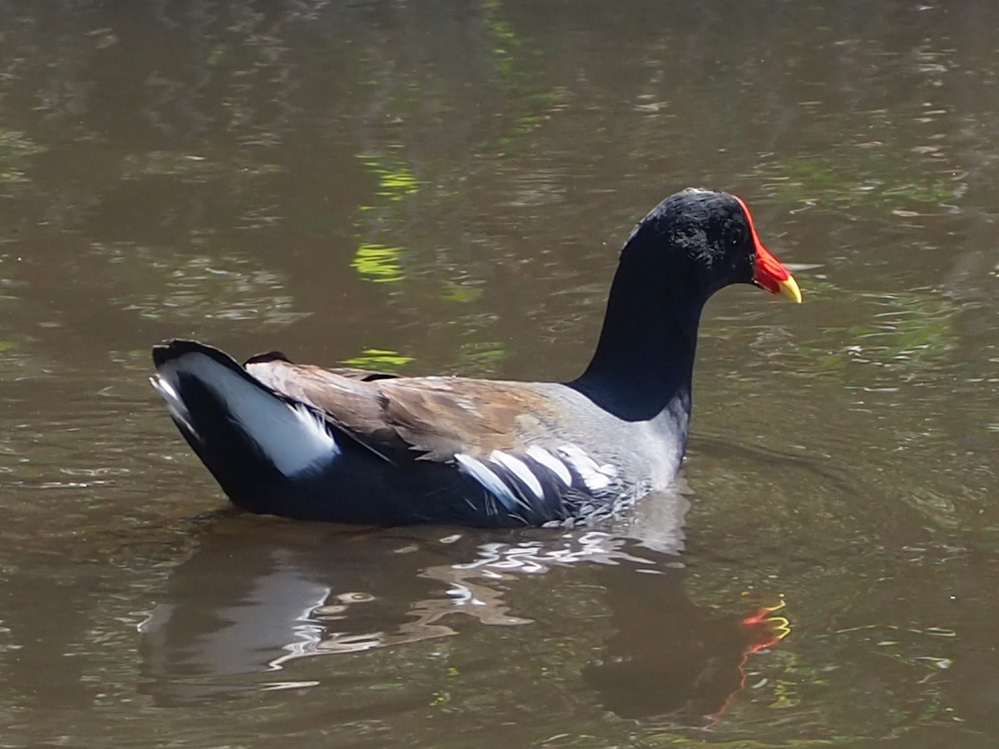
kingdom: Animalia
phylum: Chordata
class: Aves
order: Gruiformes
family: Rallidae
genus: Gallinula
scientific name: Gallinula chloropus
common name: Common moorhen
